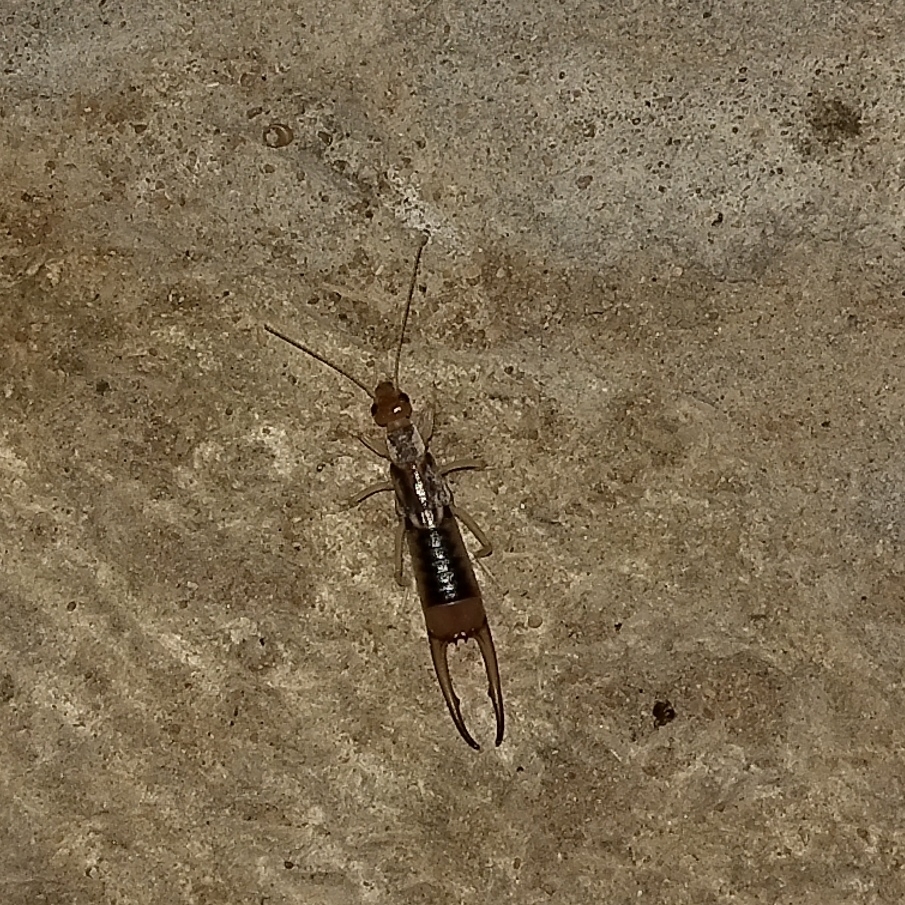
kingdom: Animalia
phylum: Arthropoda
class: Insecta
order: Dermaptera
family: Labiduridae
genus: Labidura
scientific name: Labidura riparia
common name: Striped earwig
